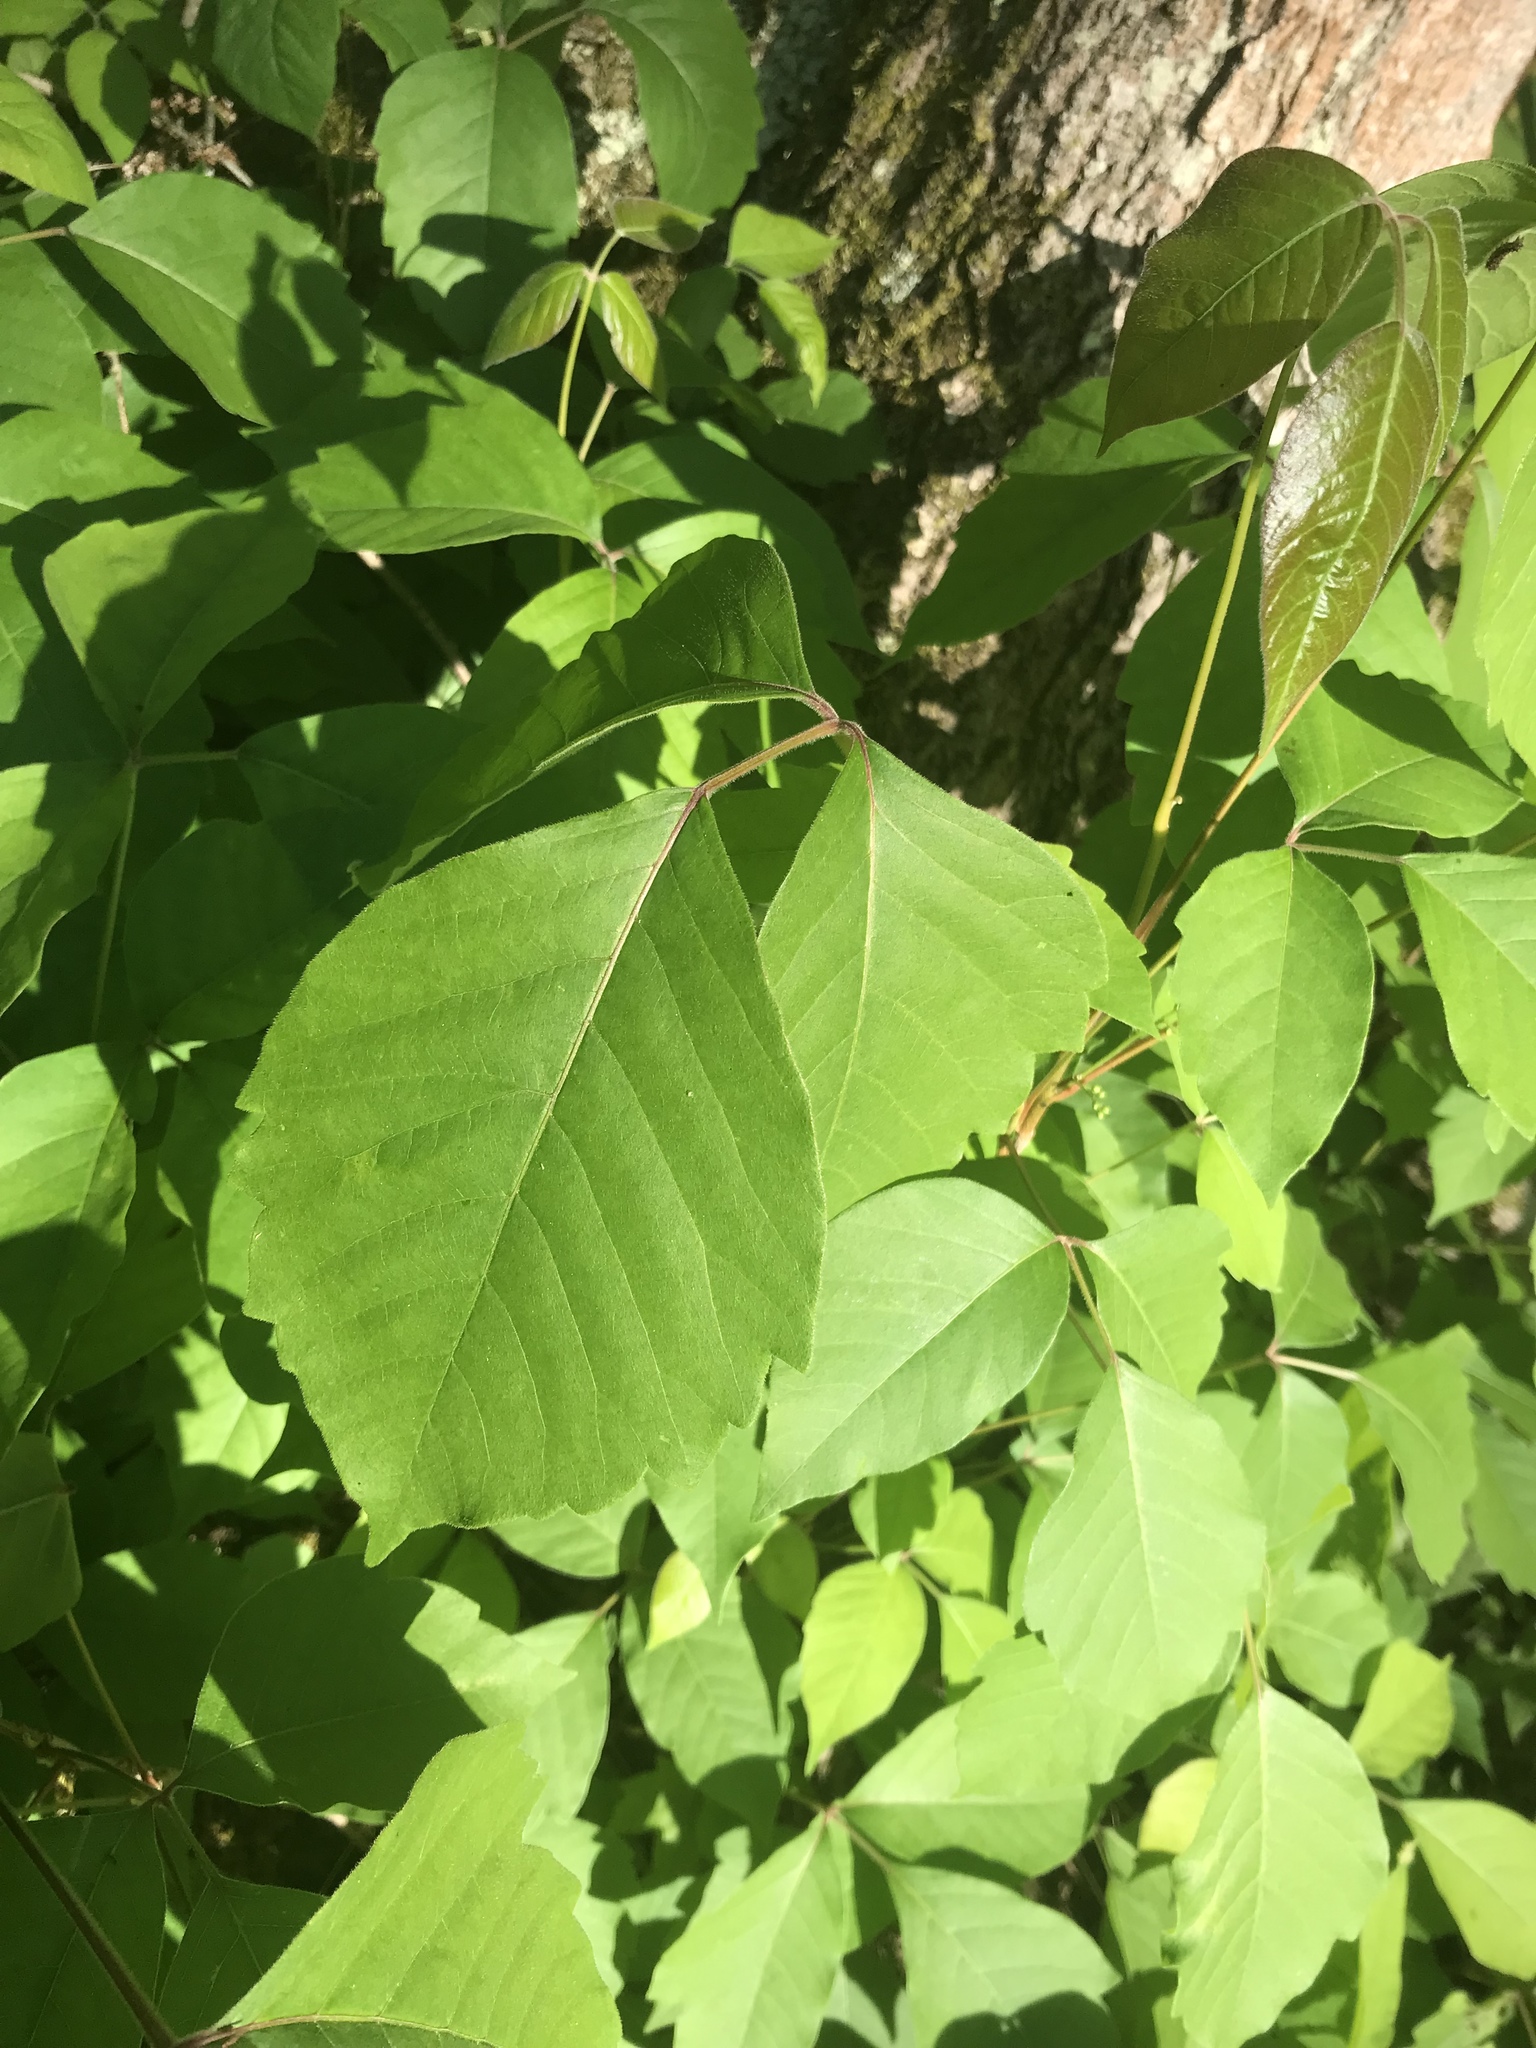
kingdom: Plantae
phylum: Tracheophyta
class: Magnoliopsida
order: Sapindales
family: Anacardiaceae
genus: Toxicodendron
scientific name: Toxicodendron rydbergii
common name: Rydberg's poison-ivy
